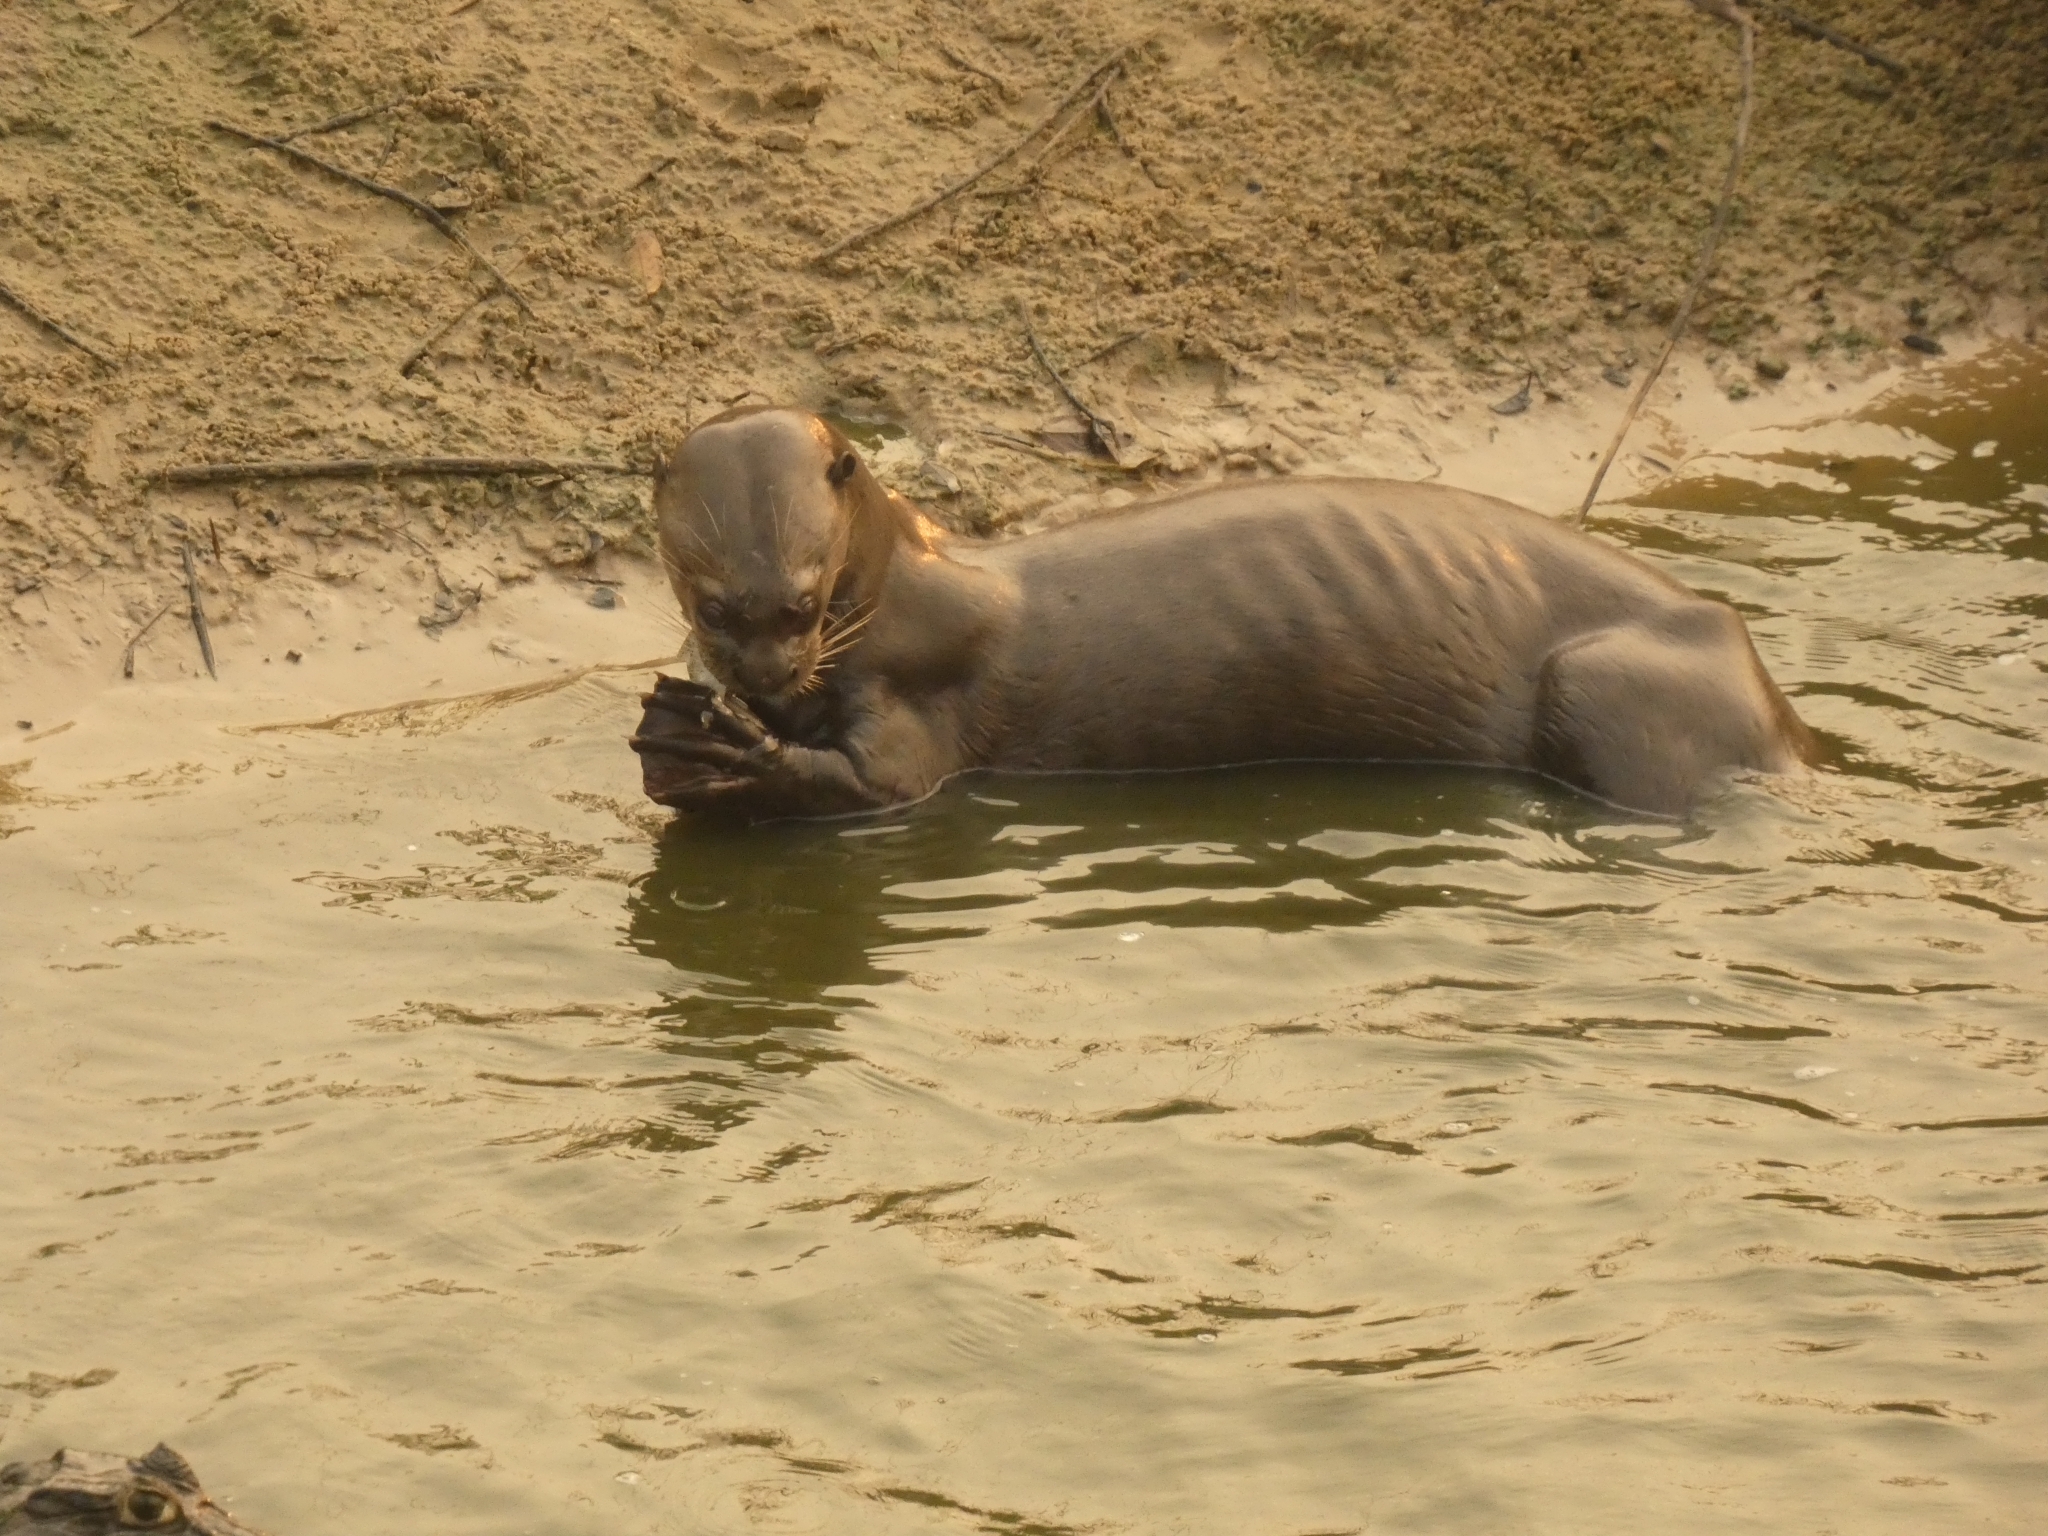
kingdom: Animalia
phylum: Chordata
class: Mammalia
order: Carnivora
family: Mustelidae
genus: Pteronura
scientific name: Pteronura brasiliensis
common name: Giant otter
